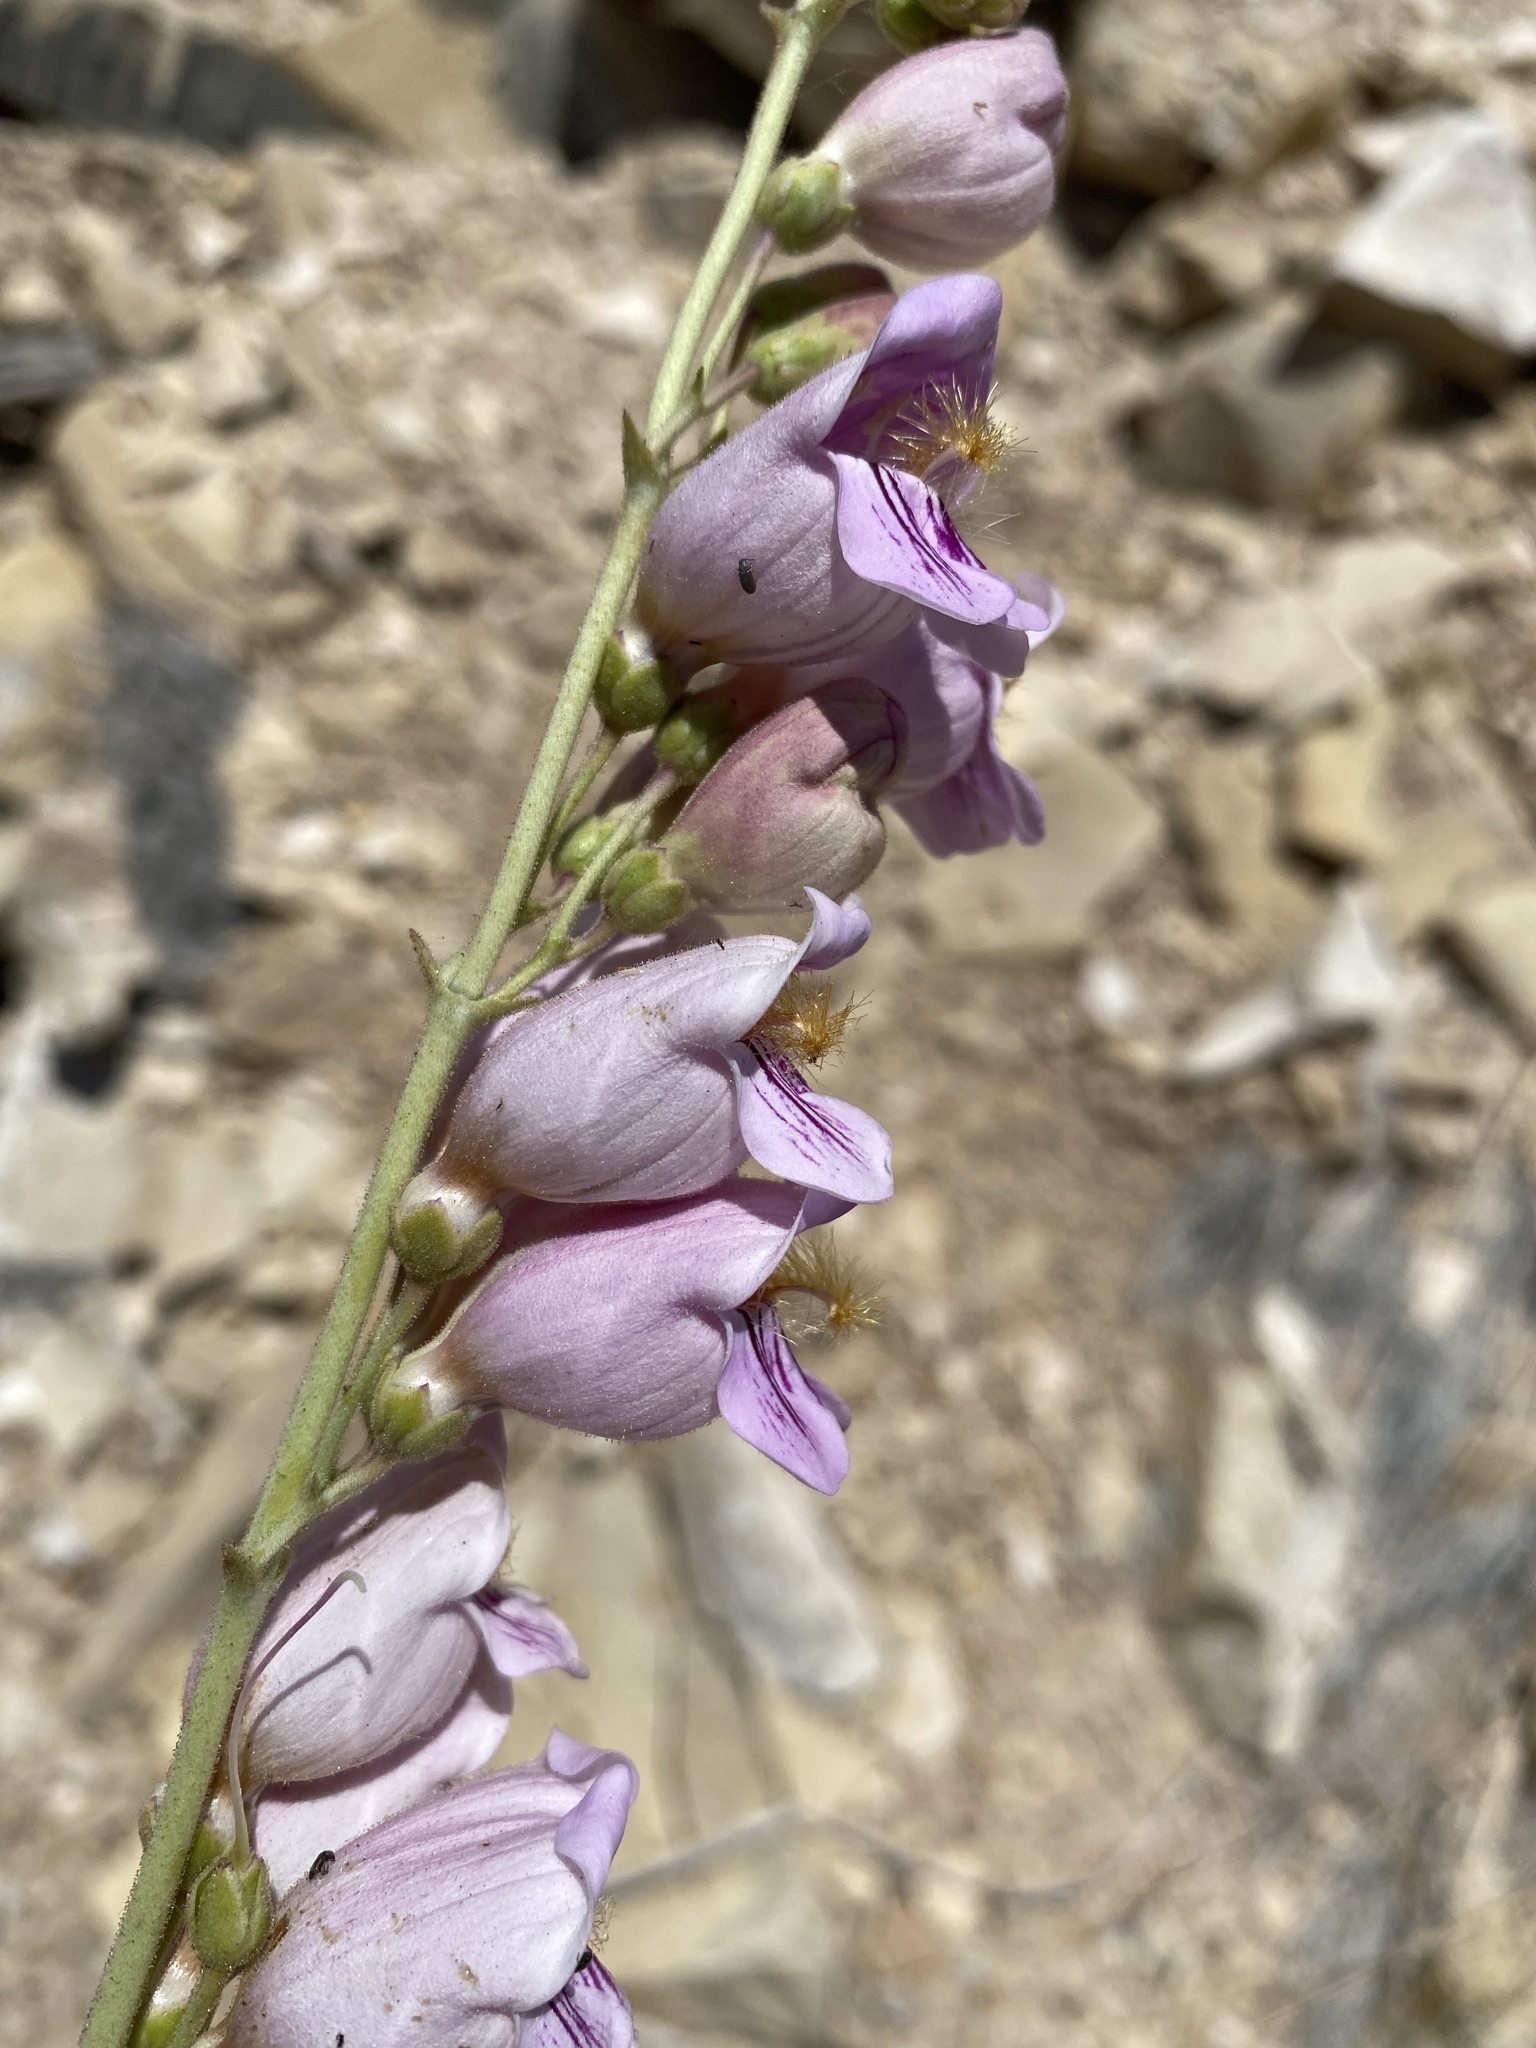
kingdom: Plantae
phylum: Tracheophyta
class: Magnoliopsida
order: Lamiales
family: Plantaginaceae
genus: Penstemon
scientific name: Penstemon palmeri
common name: Palmer penstemon
